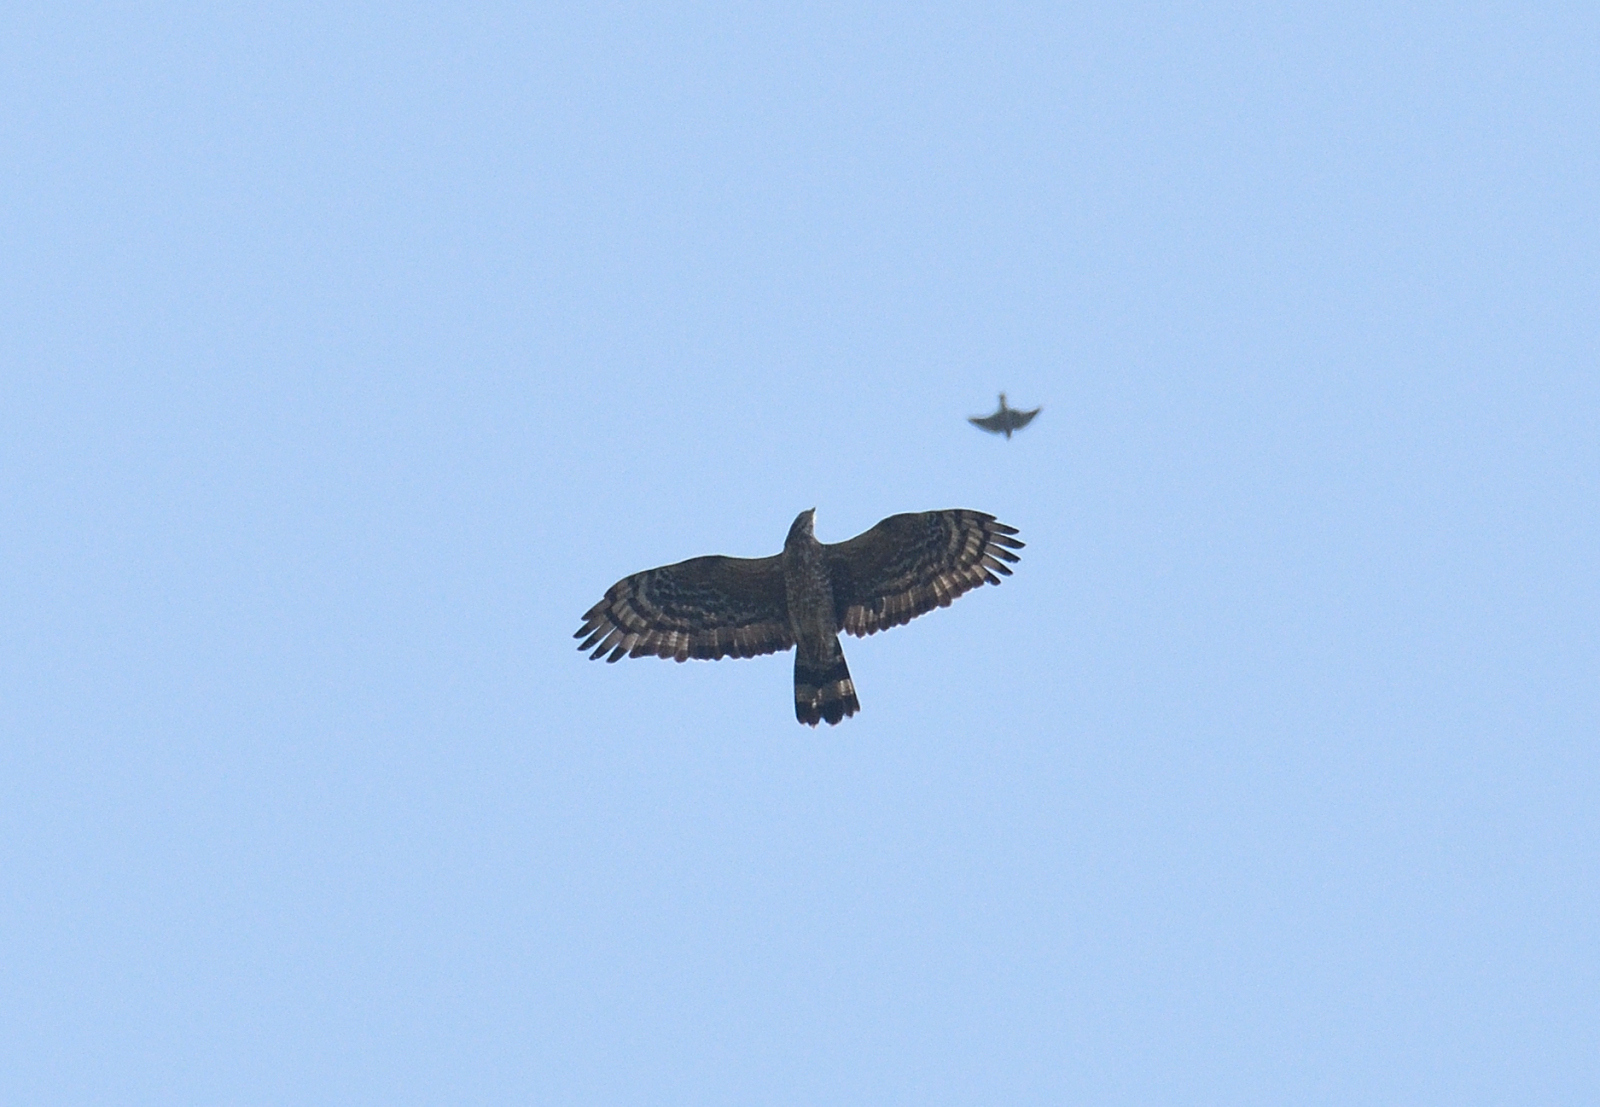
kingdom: Animalia
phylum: Chordata
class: Aves
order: Accipitriformes
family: Accipitridae
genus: Pernis
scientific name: Pernis ptilorhynchus
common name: Crested honey buzzard
